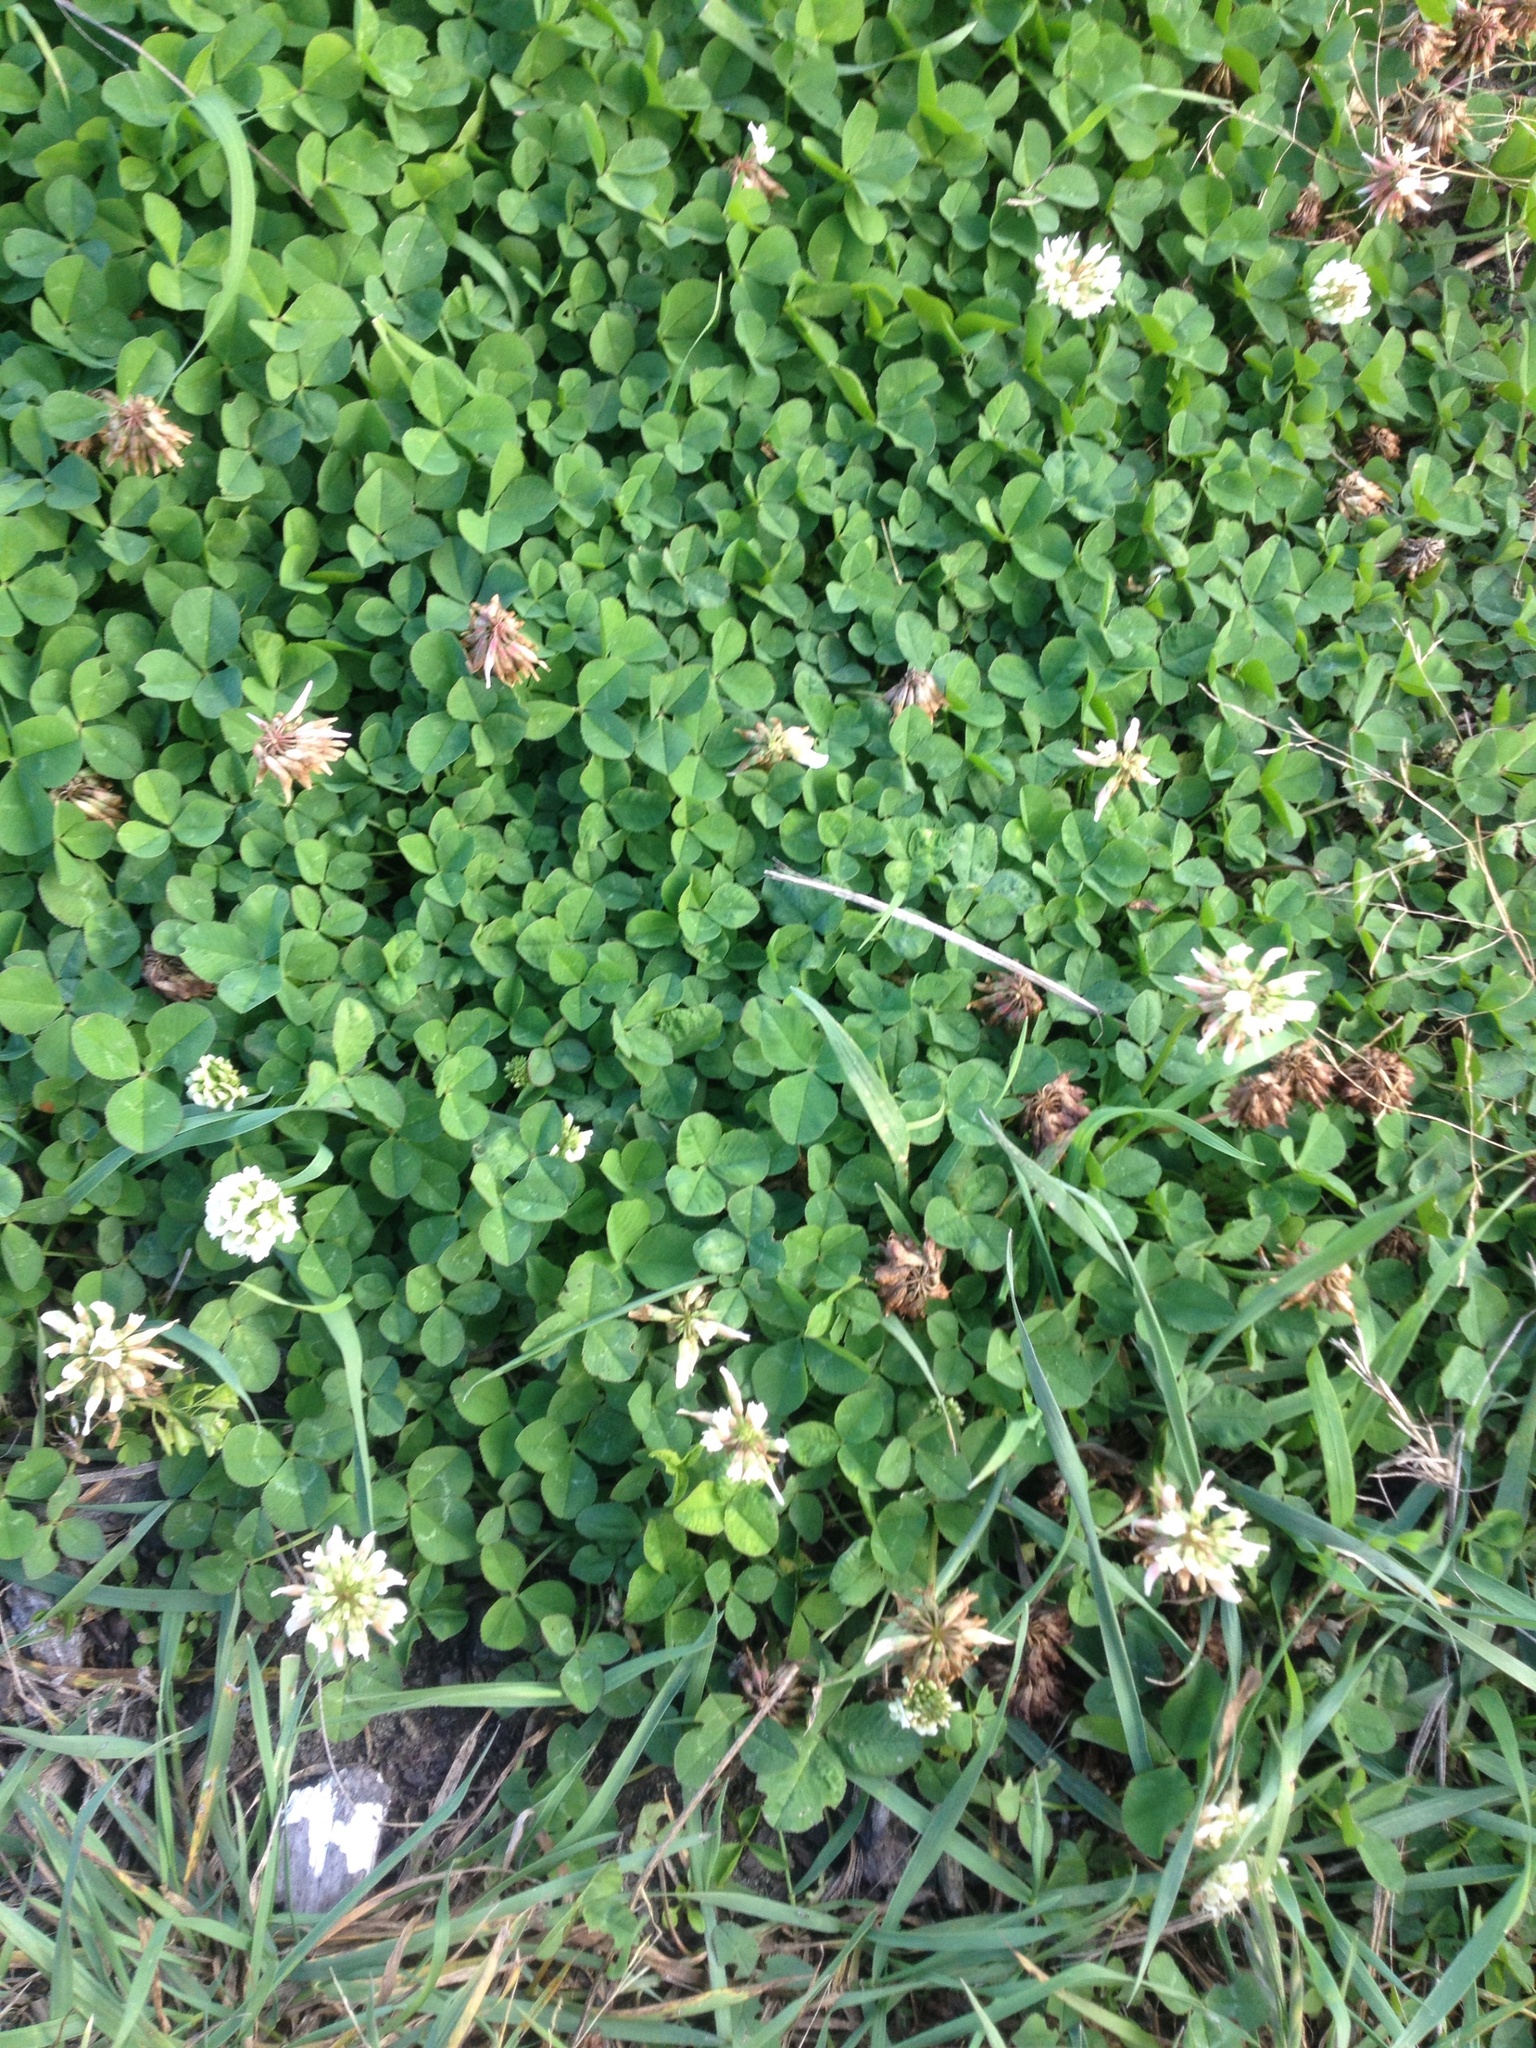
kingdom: Plantae
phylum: Tracheophyta
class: Magnoliopsida
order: Fabales
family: Fabaceae
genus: Trifolium
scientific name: Trifolium repens
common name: White clover
